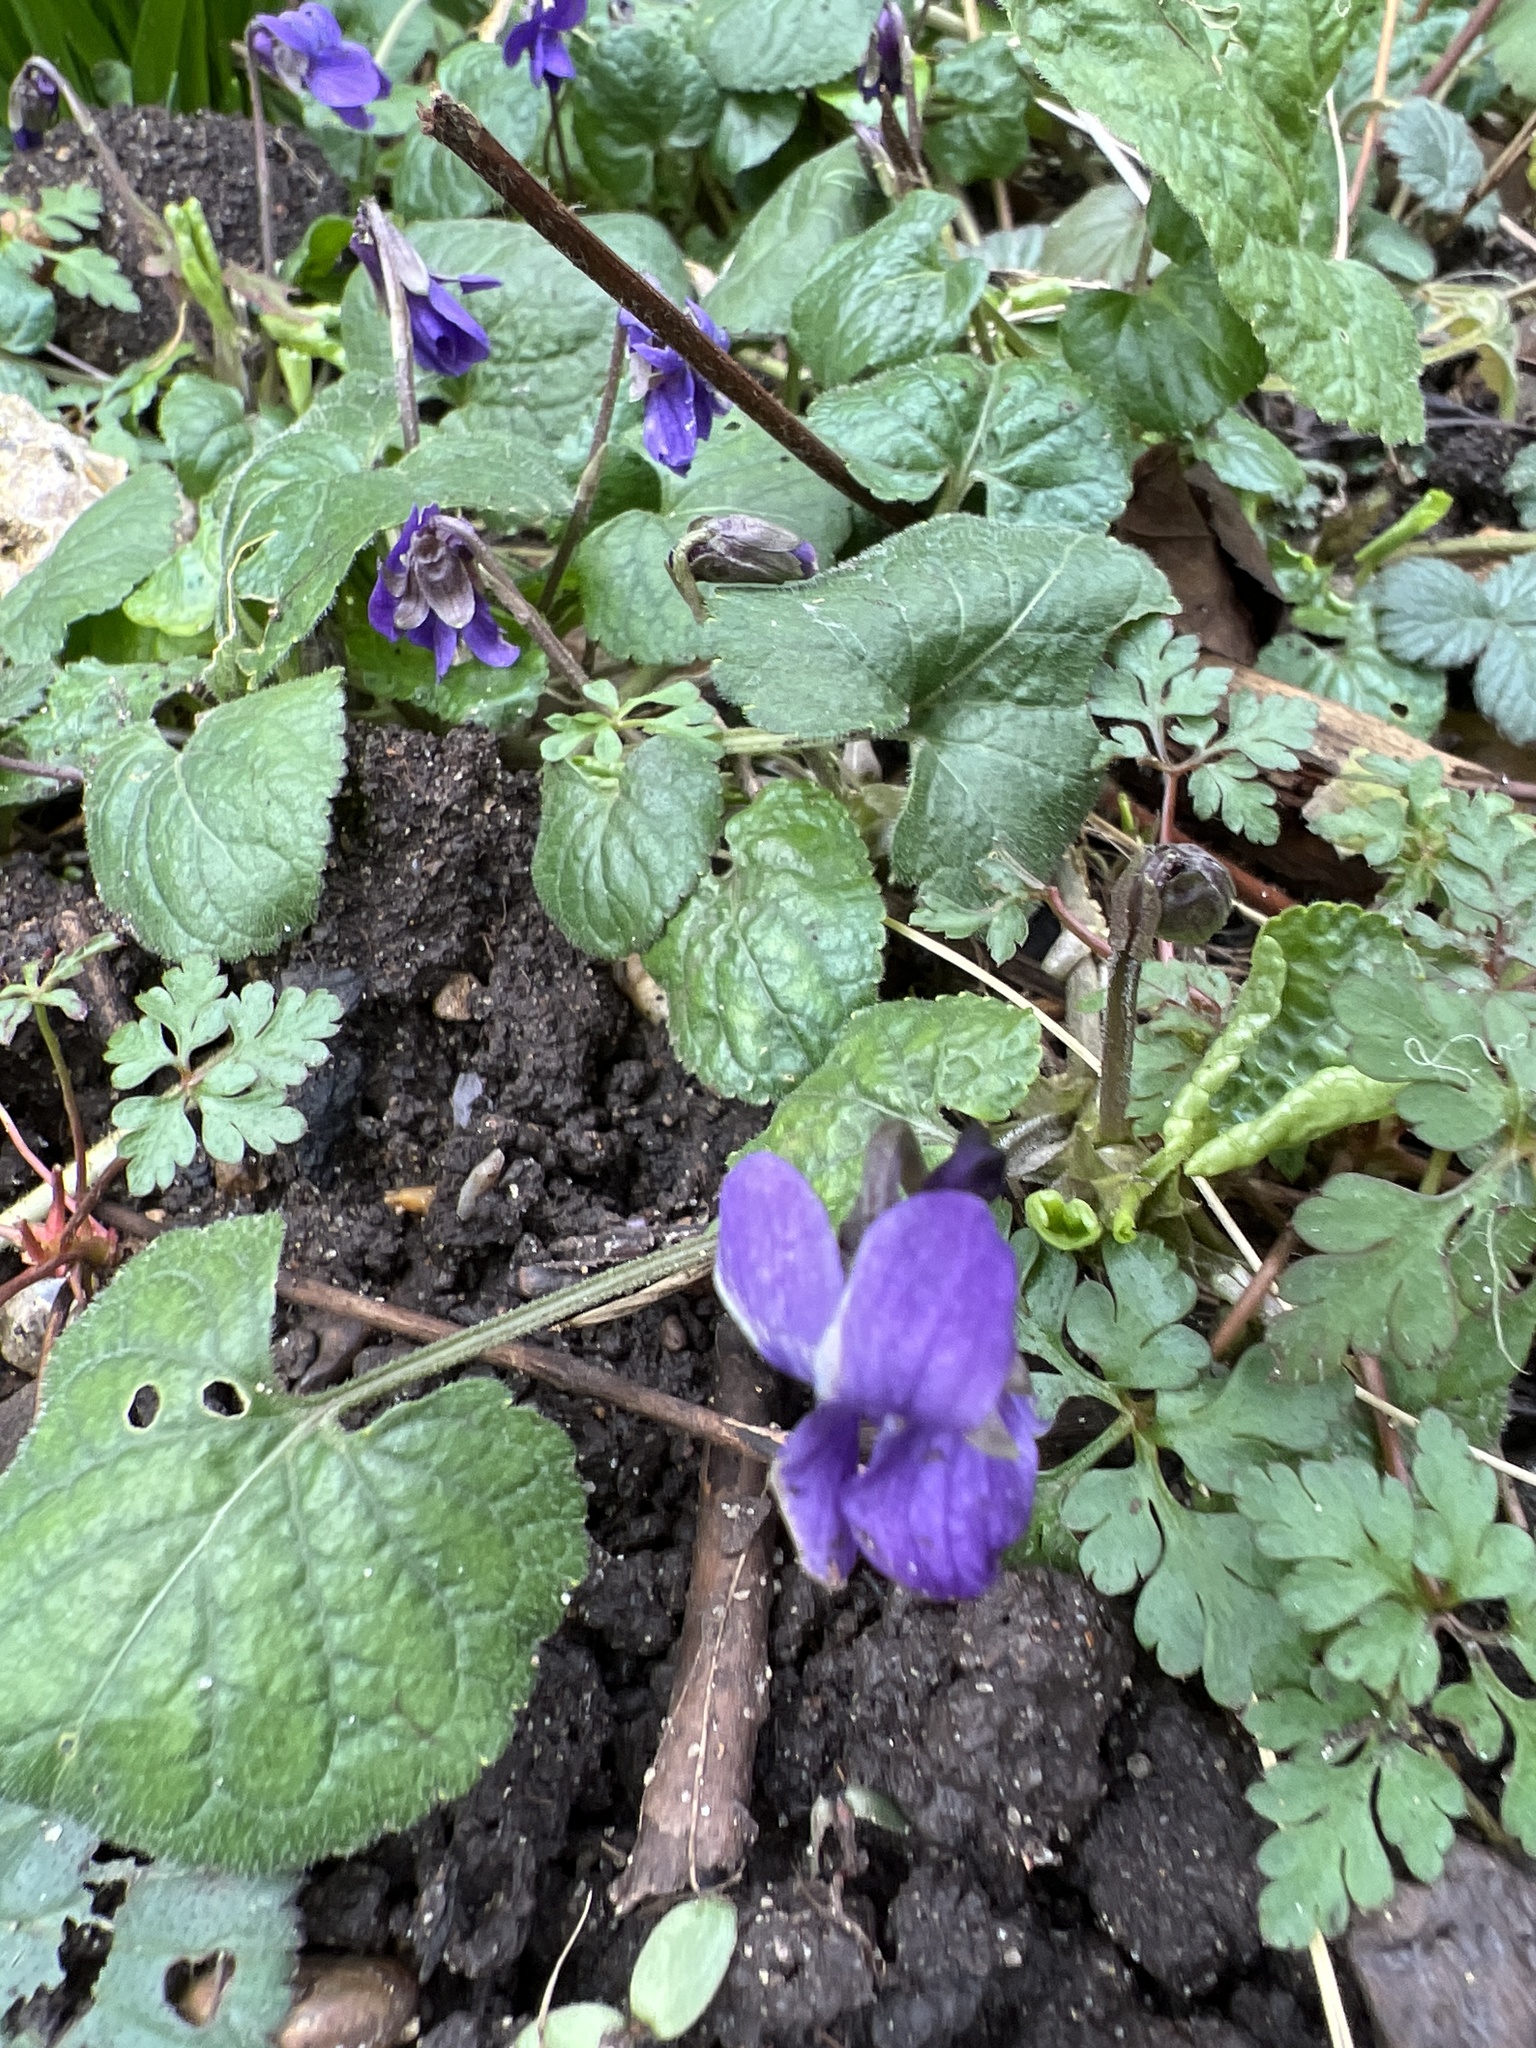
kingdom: Plantae
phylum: Tracheophyta
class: Magnoliopsida
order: Malpighiales
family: Violaceae
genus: Viola
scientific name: Viola odorata
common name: Sweet violet
